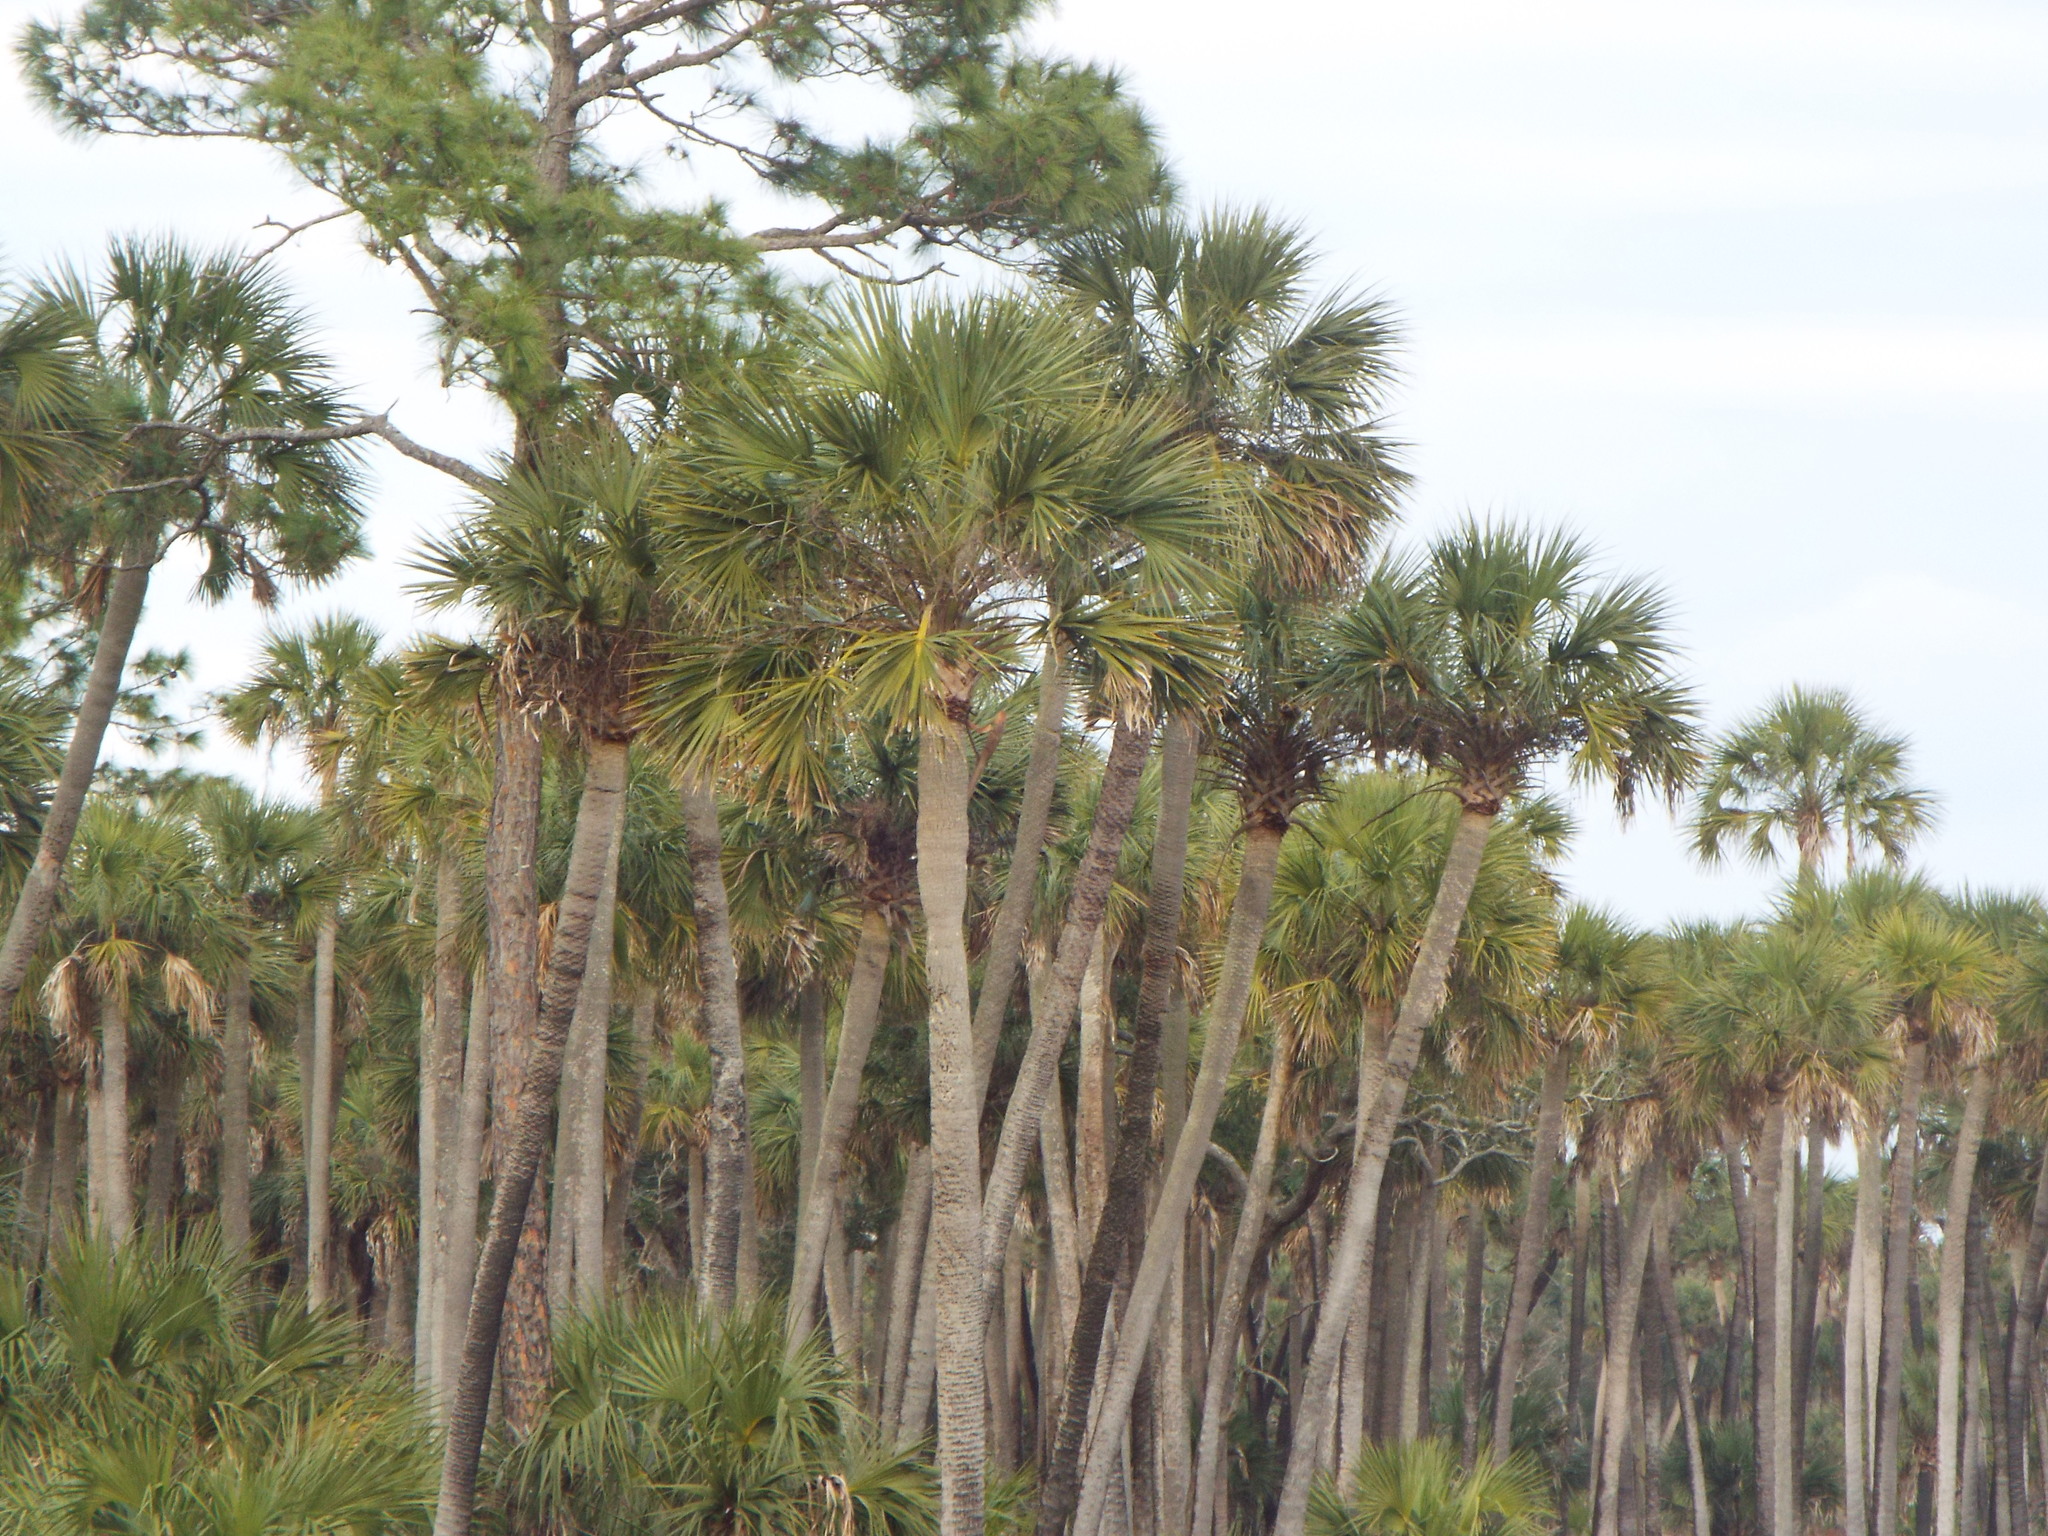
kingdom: Plantae
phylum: Tracheophyta
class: Liliopsida
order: Arecales
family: Arecaceae
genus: Sabal
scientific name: Sabal palmetto
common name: Blue palmetto
